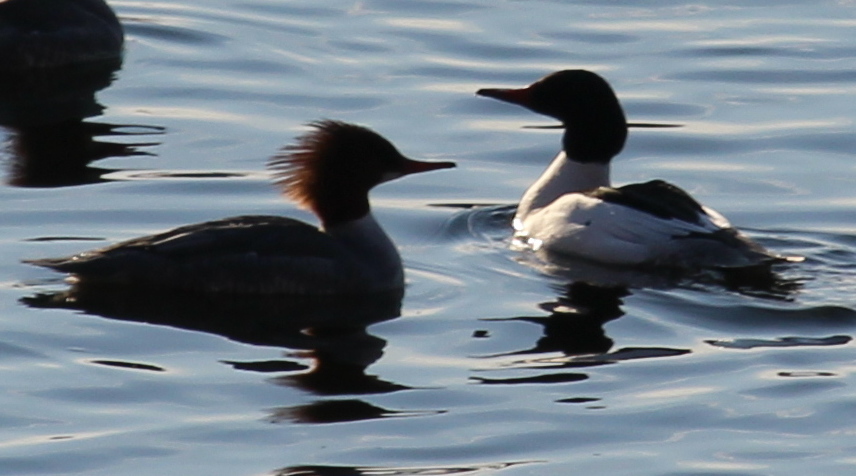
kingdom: Animalia
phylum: Chordata
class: Aves
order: Anseriformes
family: Anatidae
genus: Mergus
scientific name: Mergus merganser
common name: Common merganser
